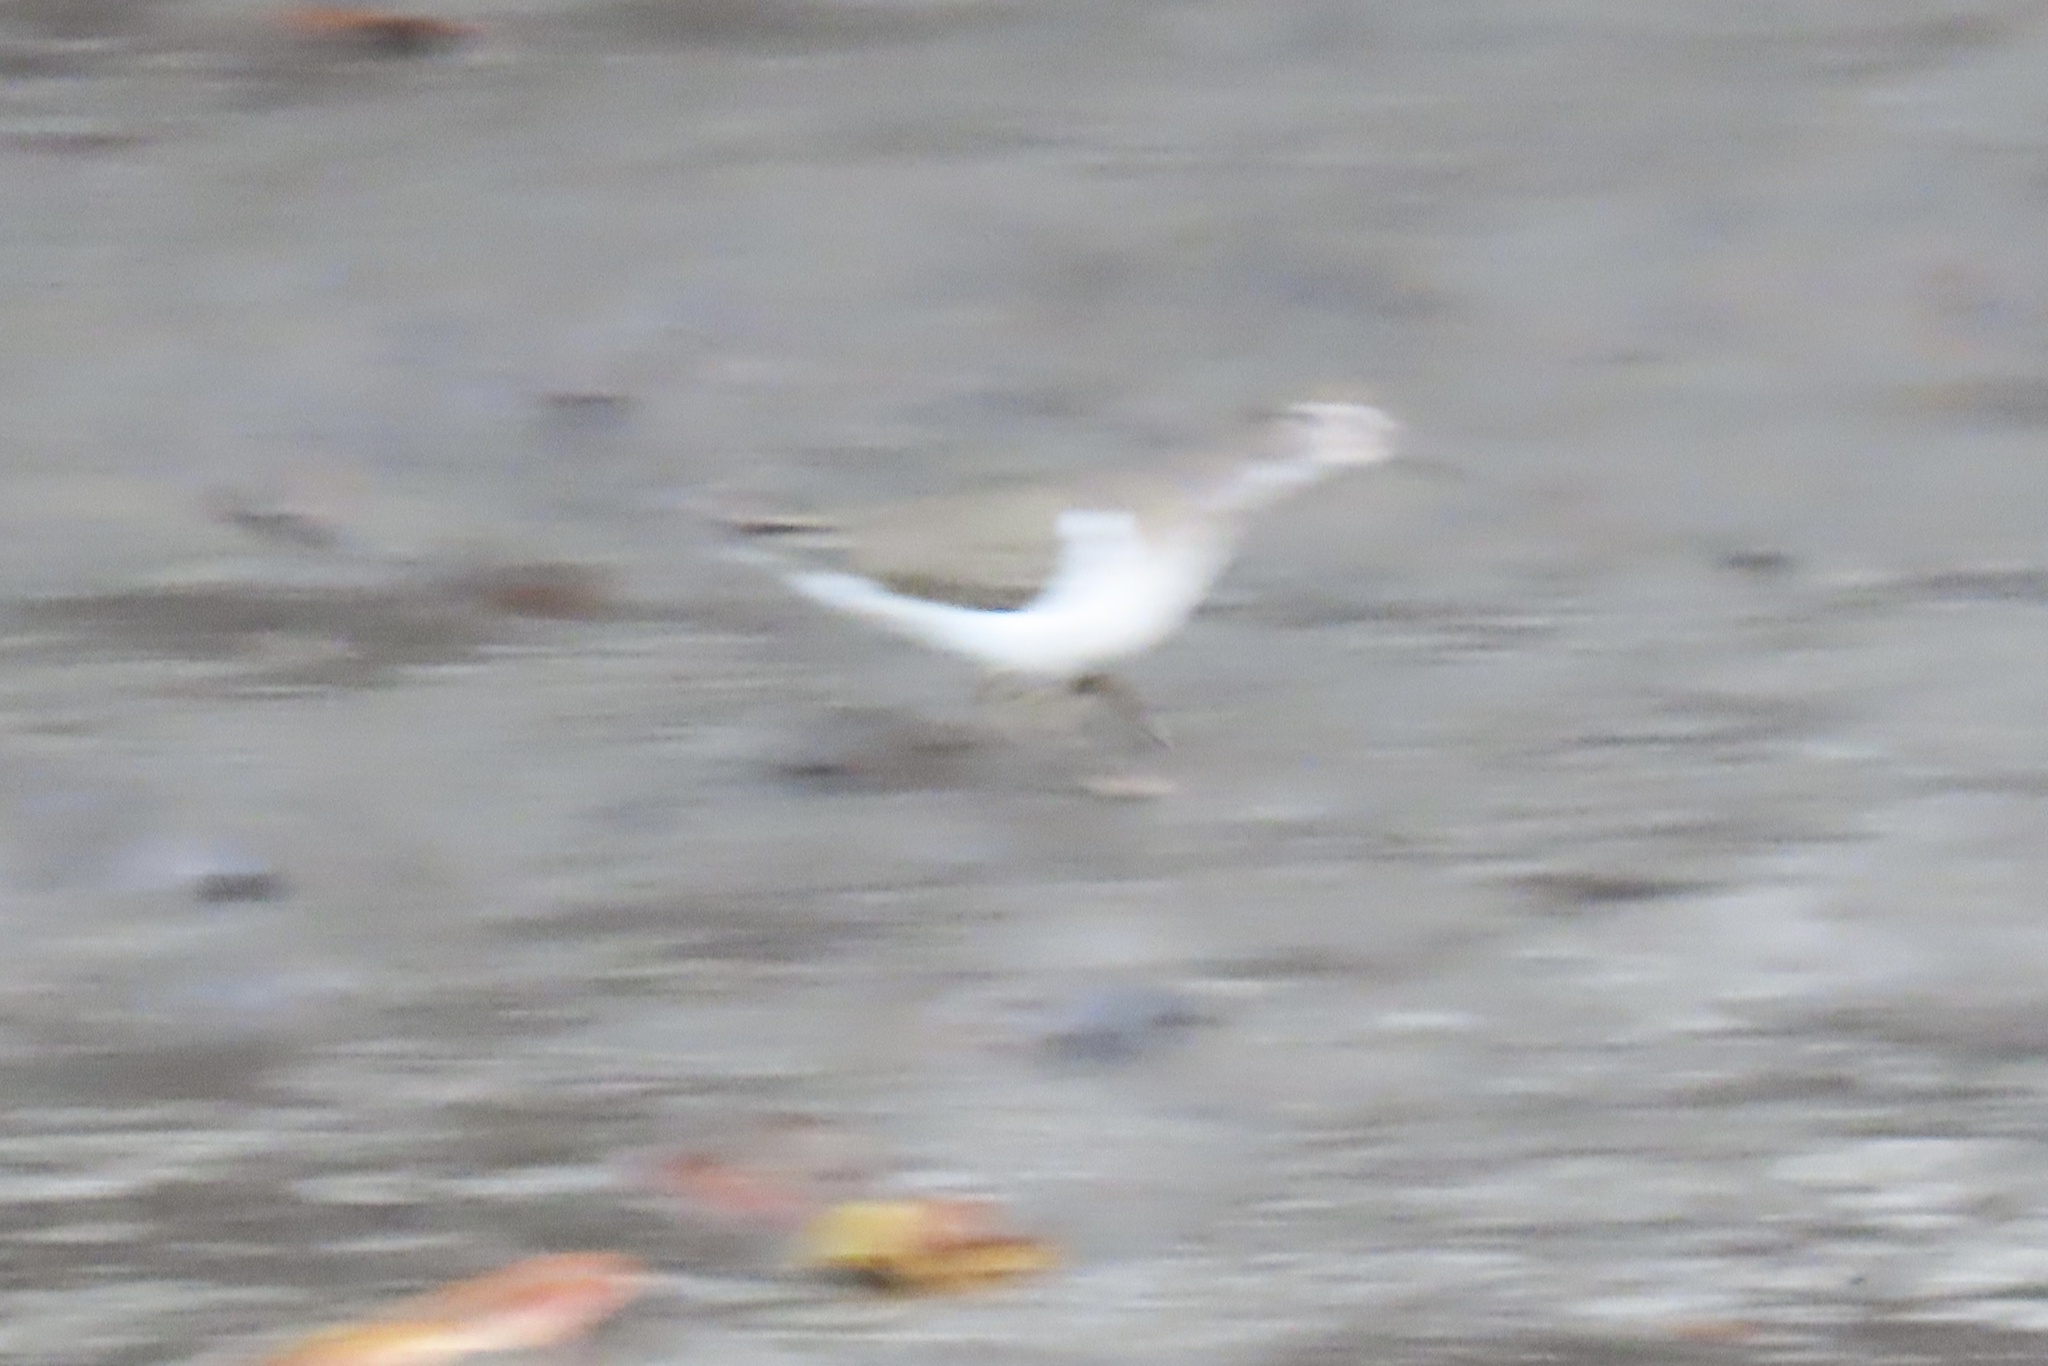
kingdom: Animalia
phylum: Chordata
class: Aves
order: Charadriiformes
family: Scolopacidae
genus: Actitis
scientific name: Actitis macularius
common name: Spotted sandpiper
